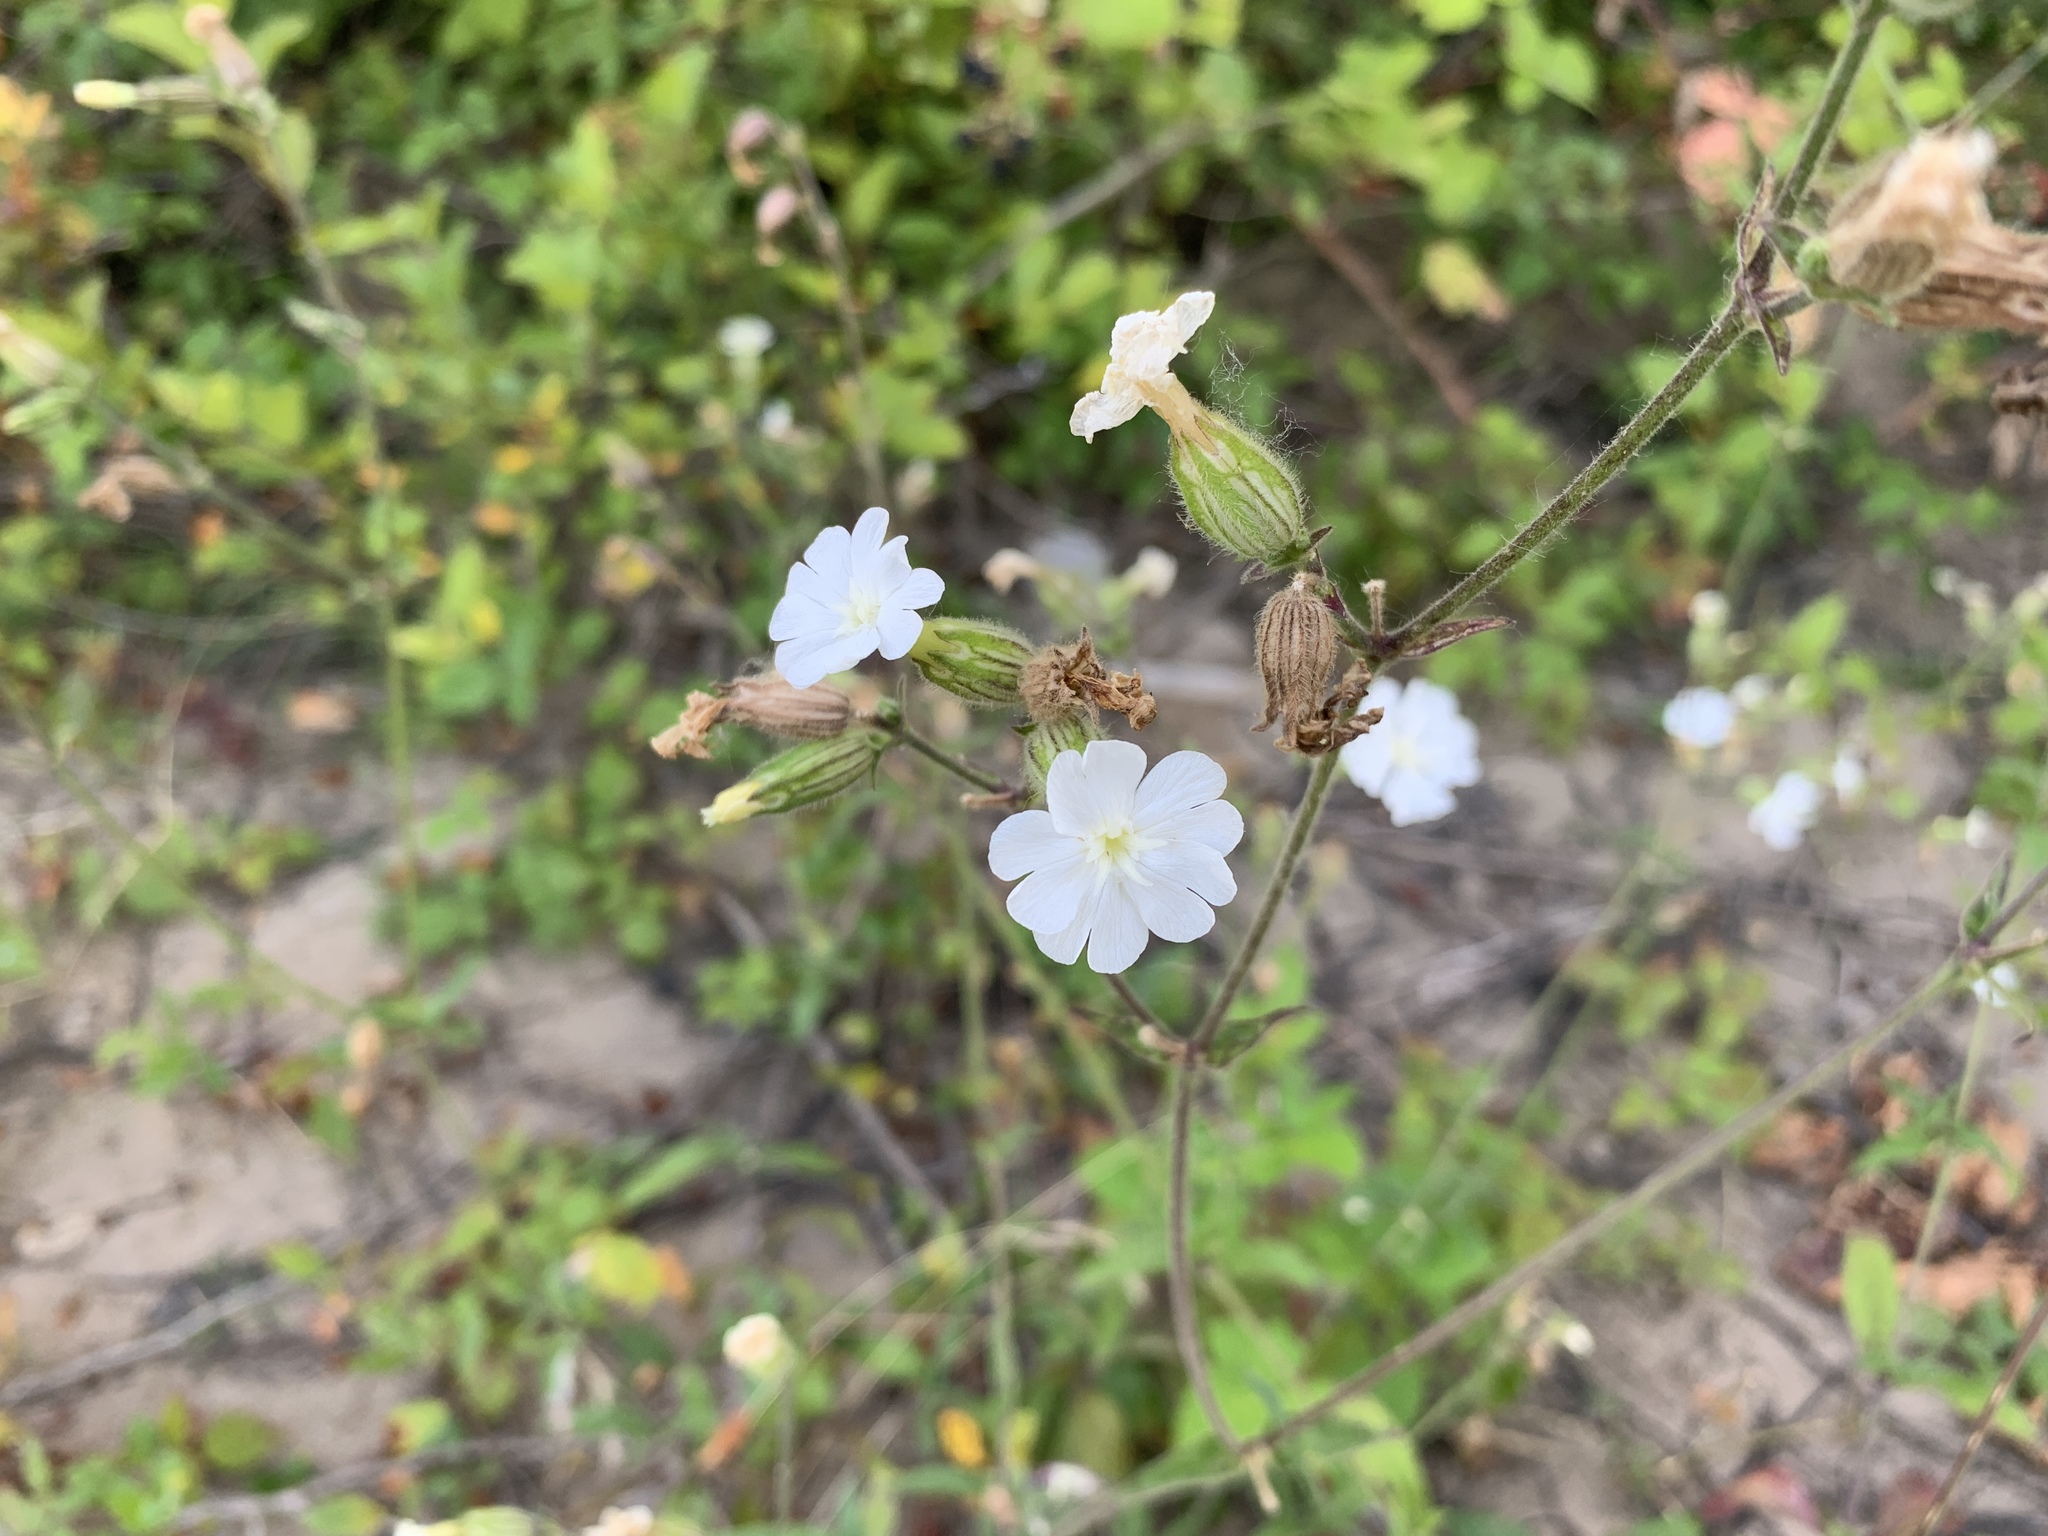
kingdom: Plantae
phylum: Tracheophyta
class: Magnoliopsida
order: Caryophyllales
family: Caryophyllaceae
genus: Silene
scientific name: Silene latifolia
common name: White campion
